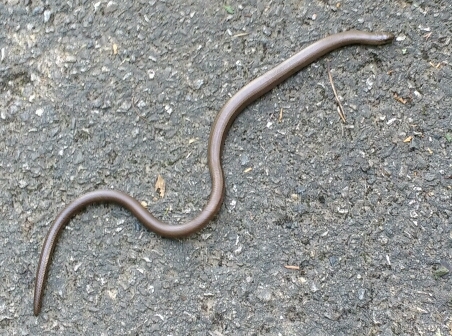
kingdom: Animalia
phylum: Chordata
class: Squamata
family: Anguidae
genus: Anguis
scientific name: Anguis fragilis
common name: Slow worm
